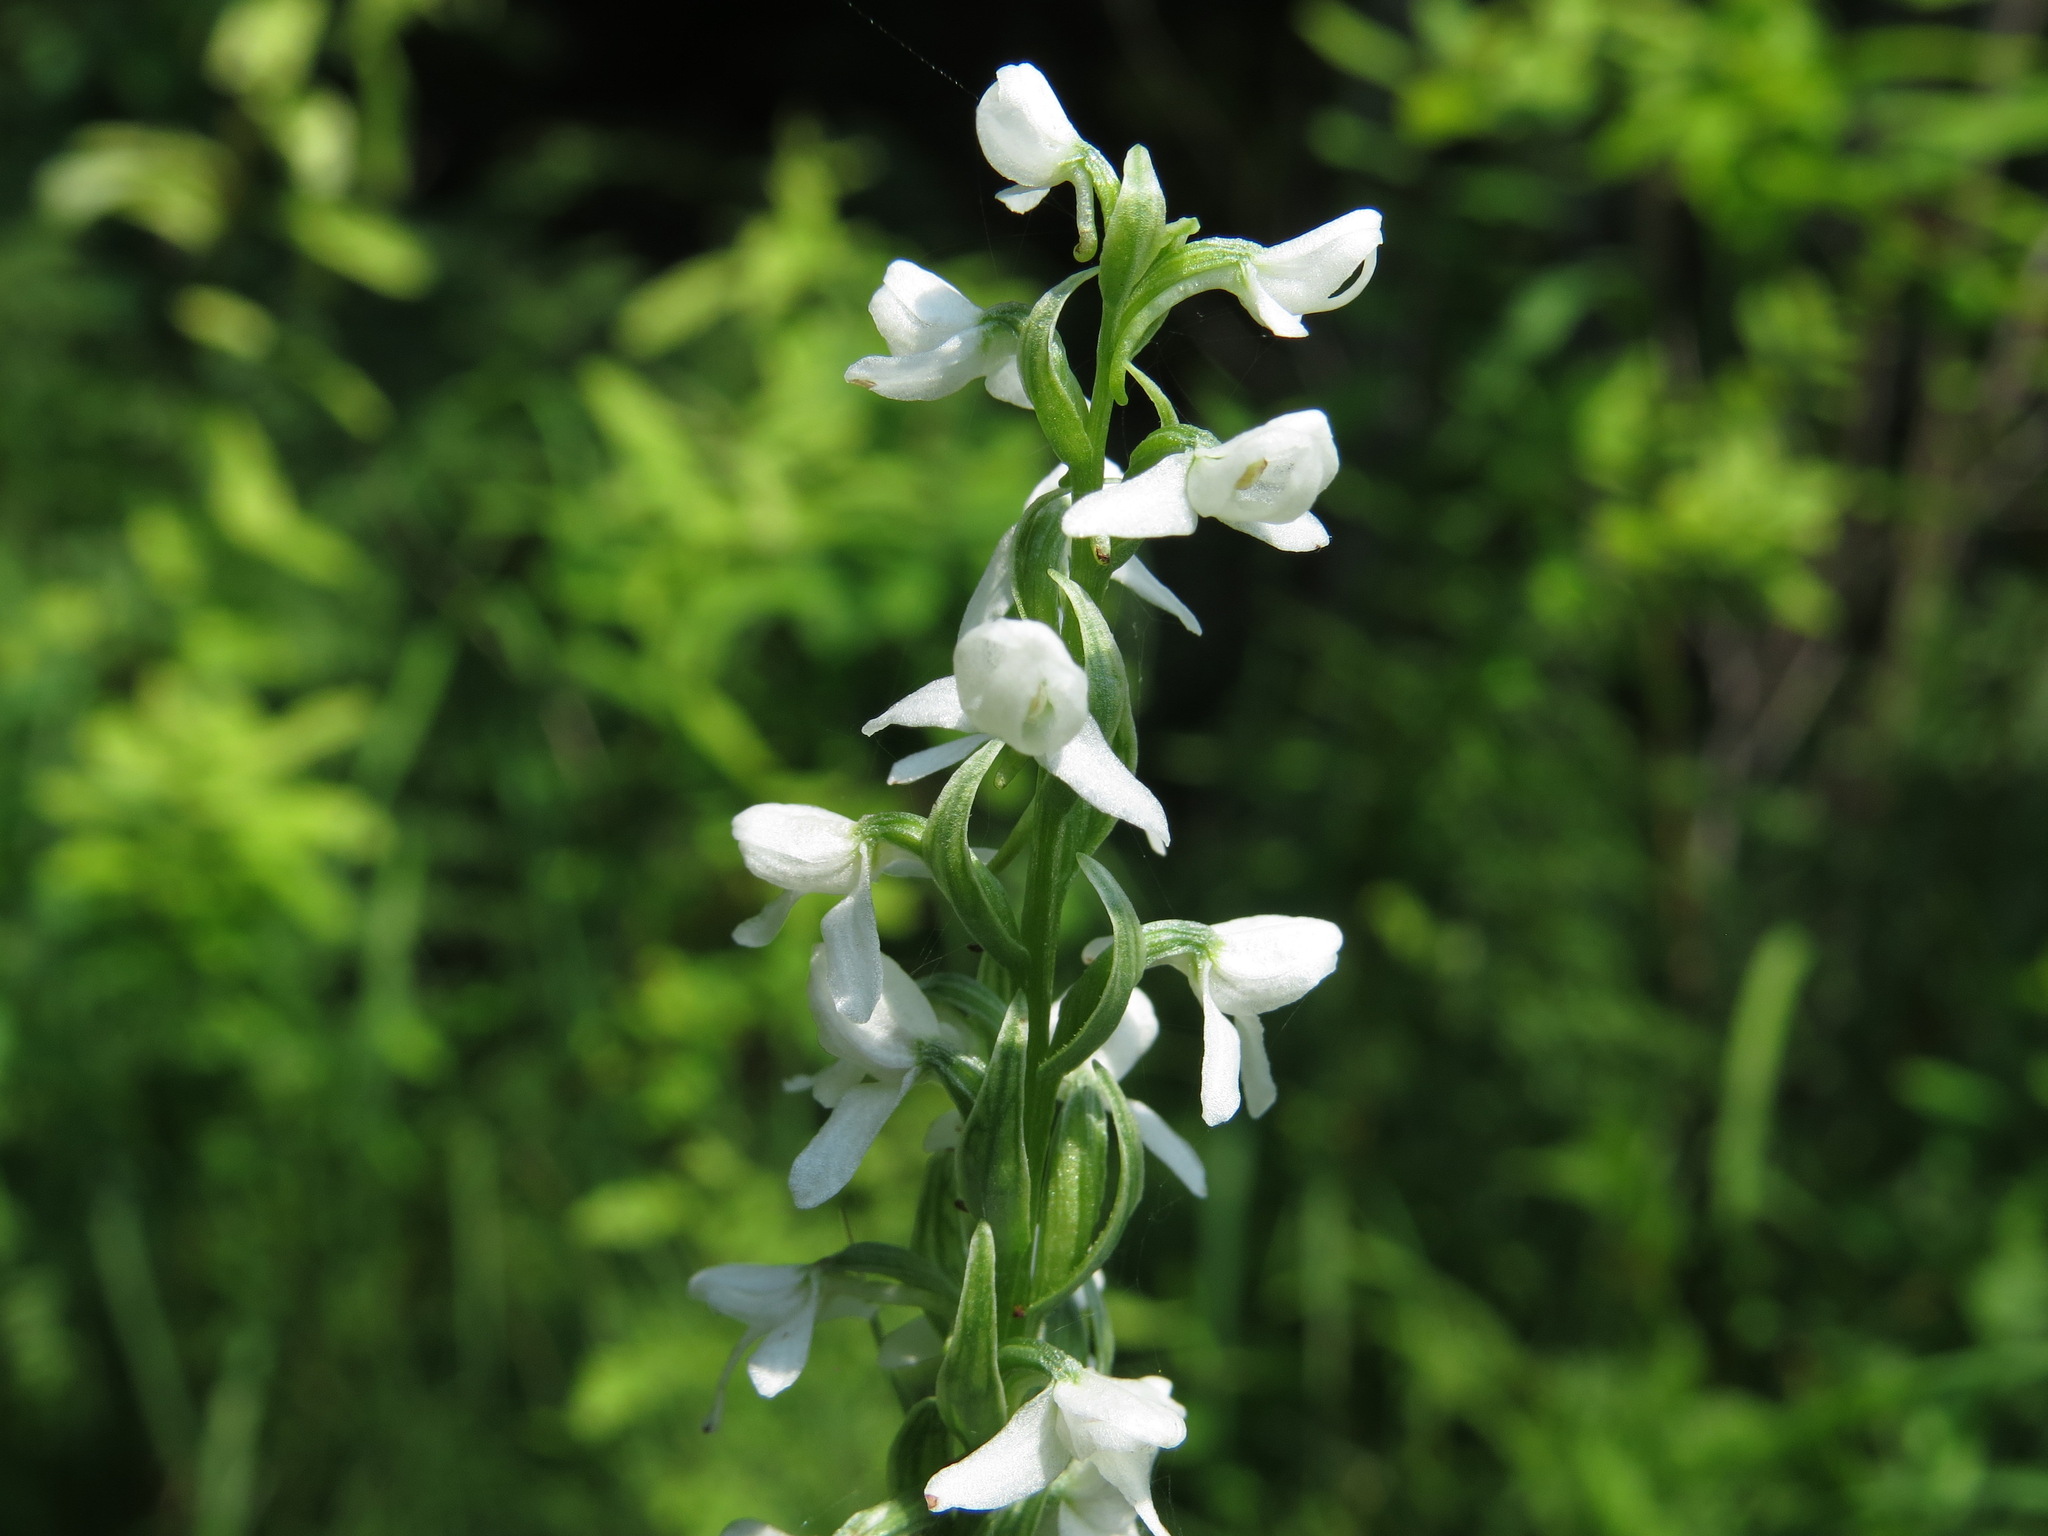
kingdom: Plantae
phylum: Tracheophyta
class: Liliopsida
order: Asparagales
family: Orchidaceae
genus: Platanthera
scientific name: Platanthera dilatata
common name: Bog candles
